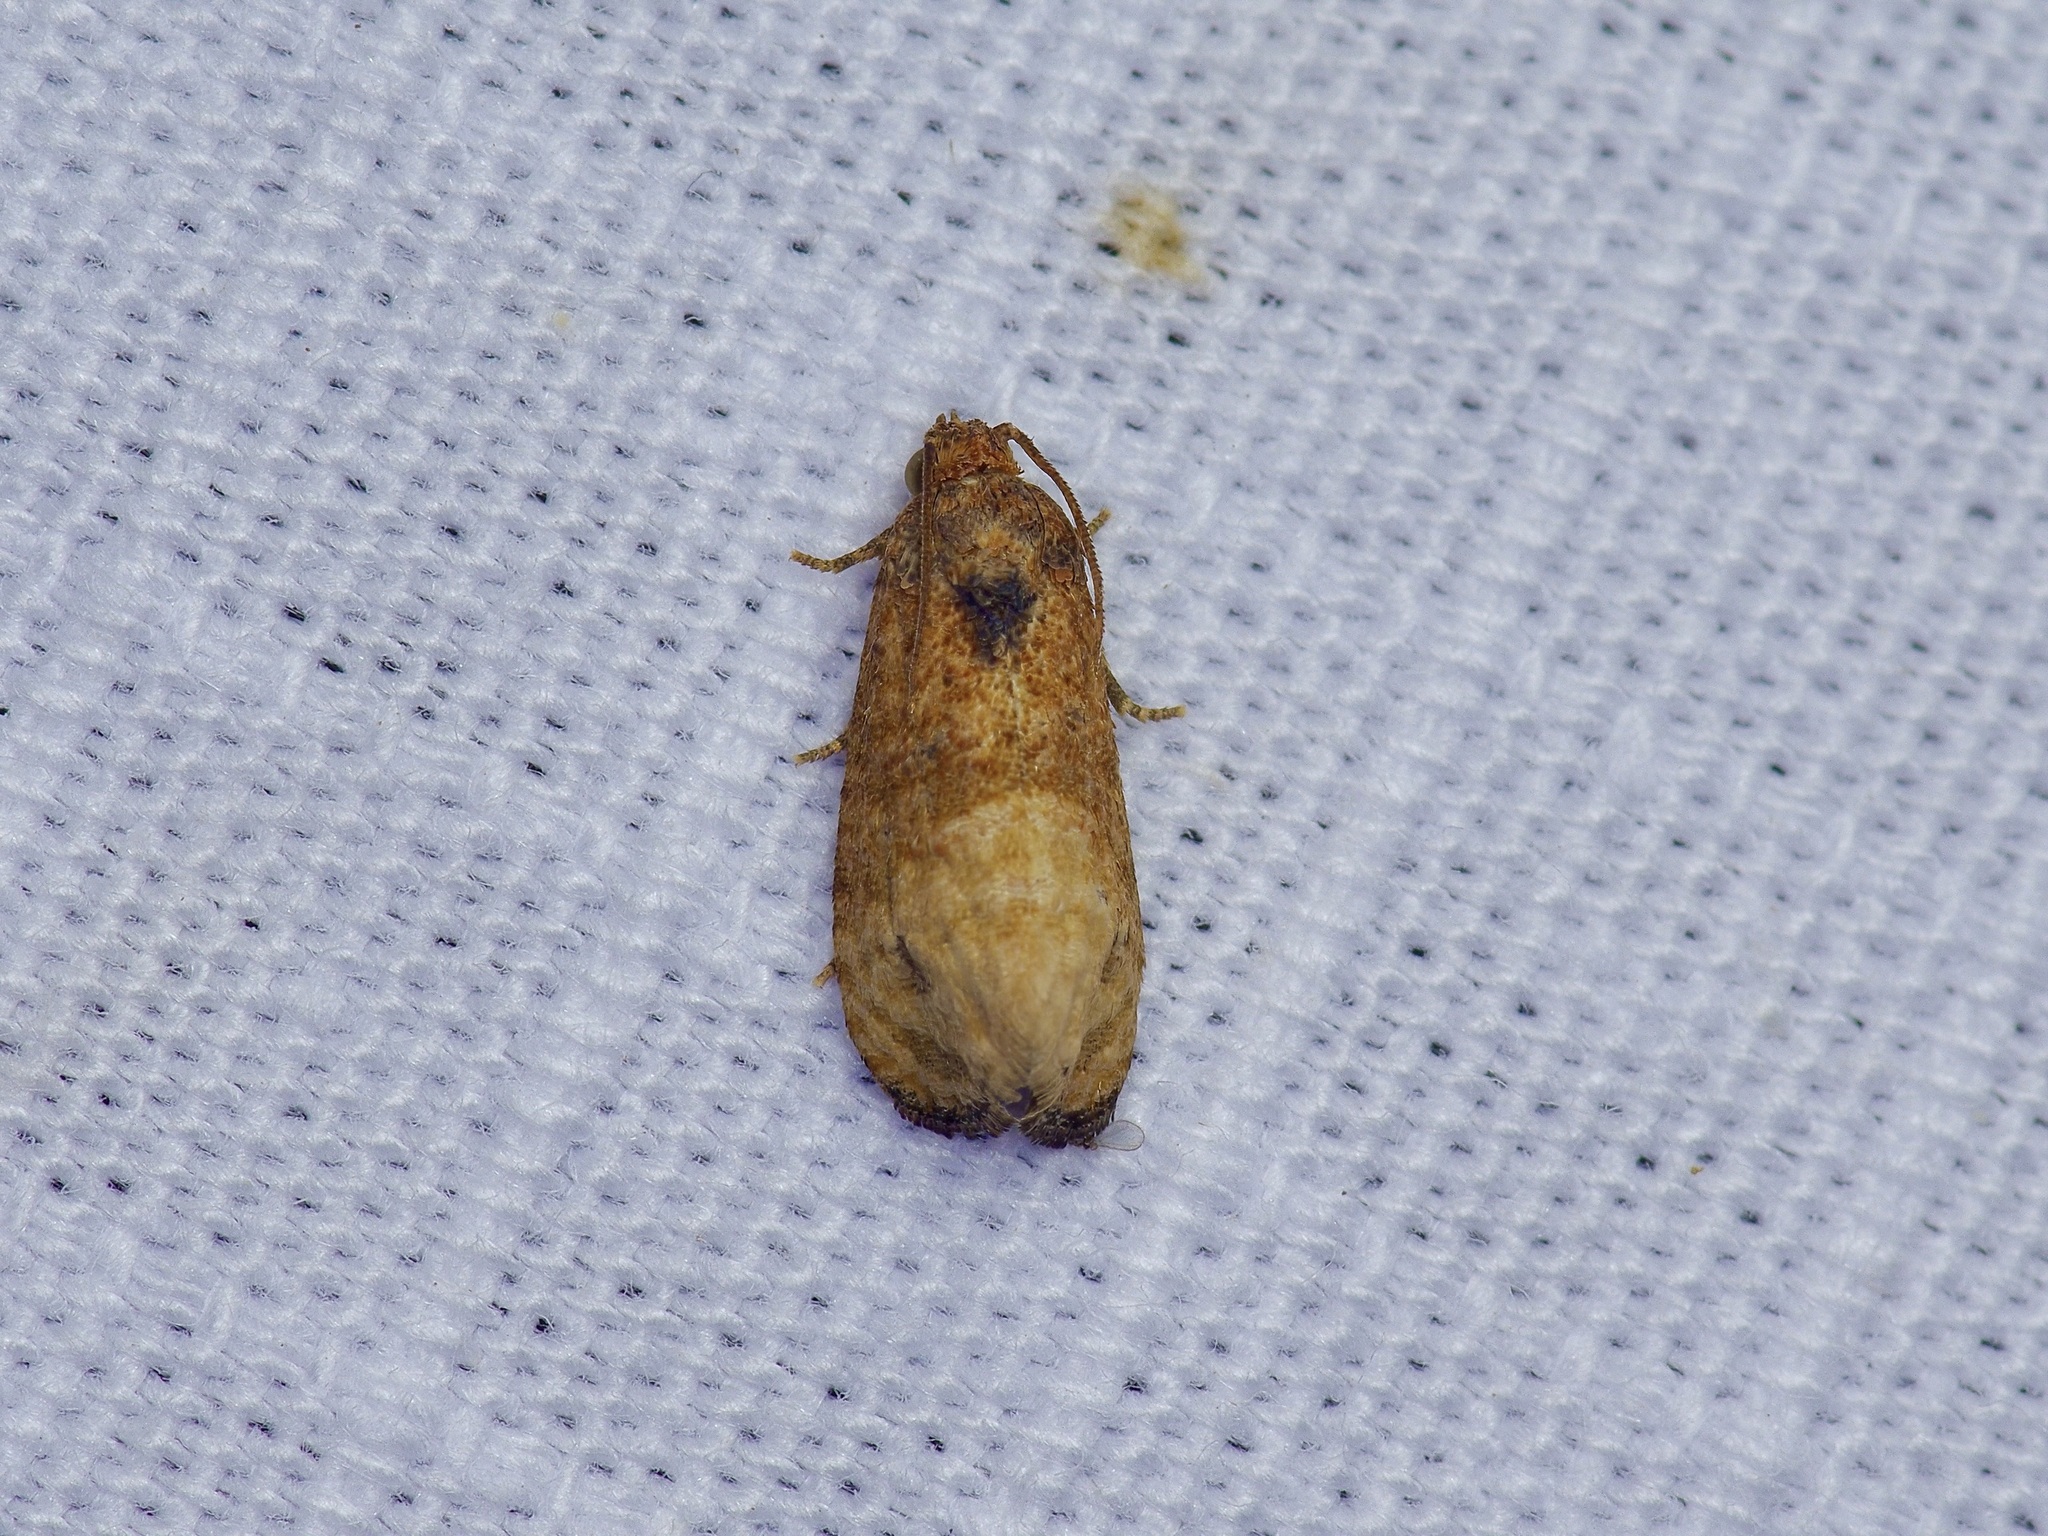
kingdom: Animalia
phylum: Arthropoda
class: Insecta
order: Lepidoptera
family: Tortricidae
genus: Ecdytolopha
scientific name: Ecdytolopha mana
